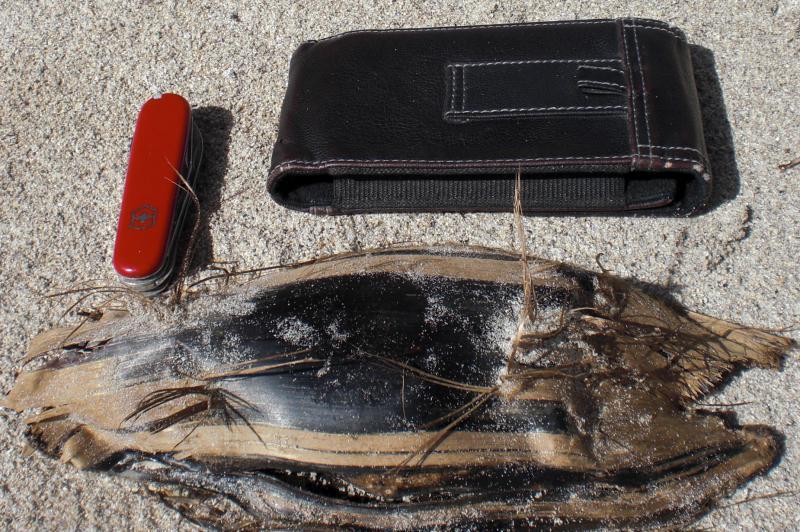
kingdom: Animalia
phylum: Chordata
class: Elasmobranchii
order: Rajiformes
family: Rajidae
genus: Dipturus
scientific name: Dipturus batis
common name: Blue skate
